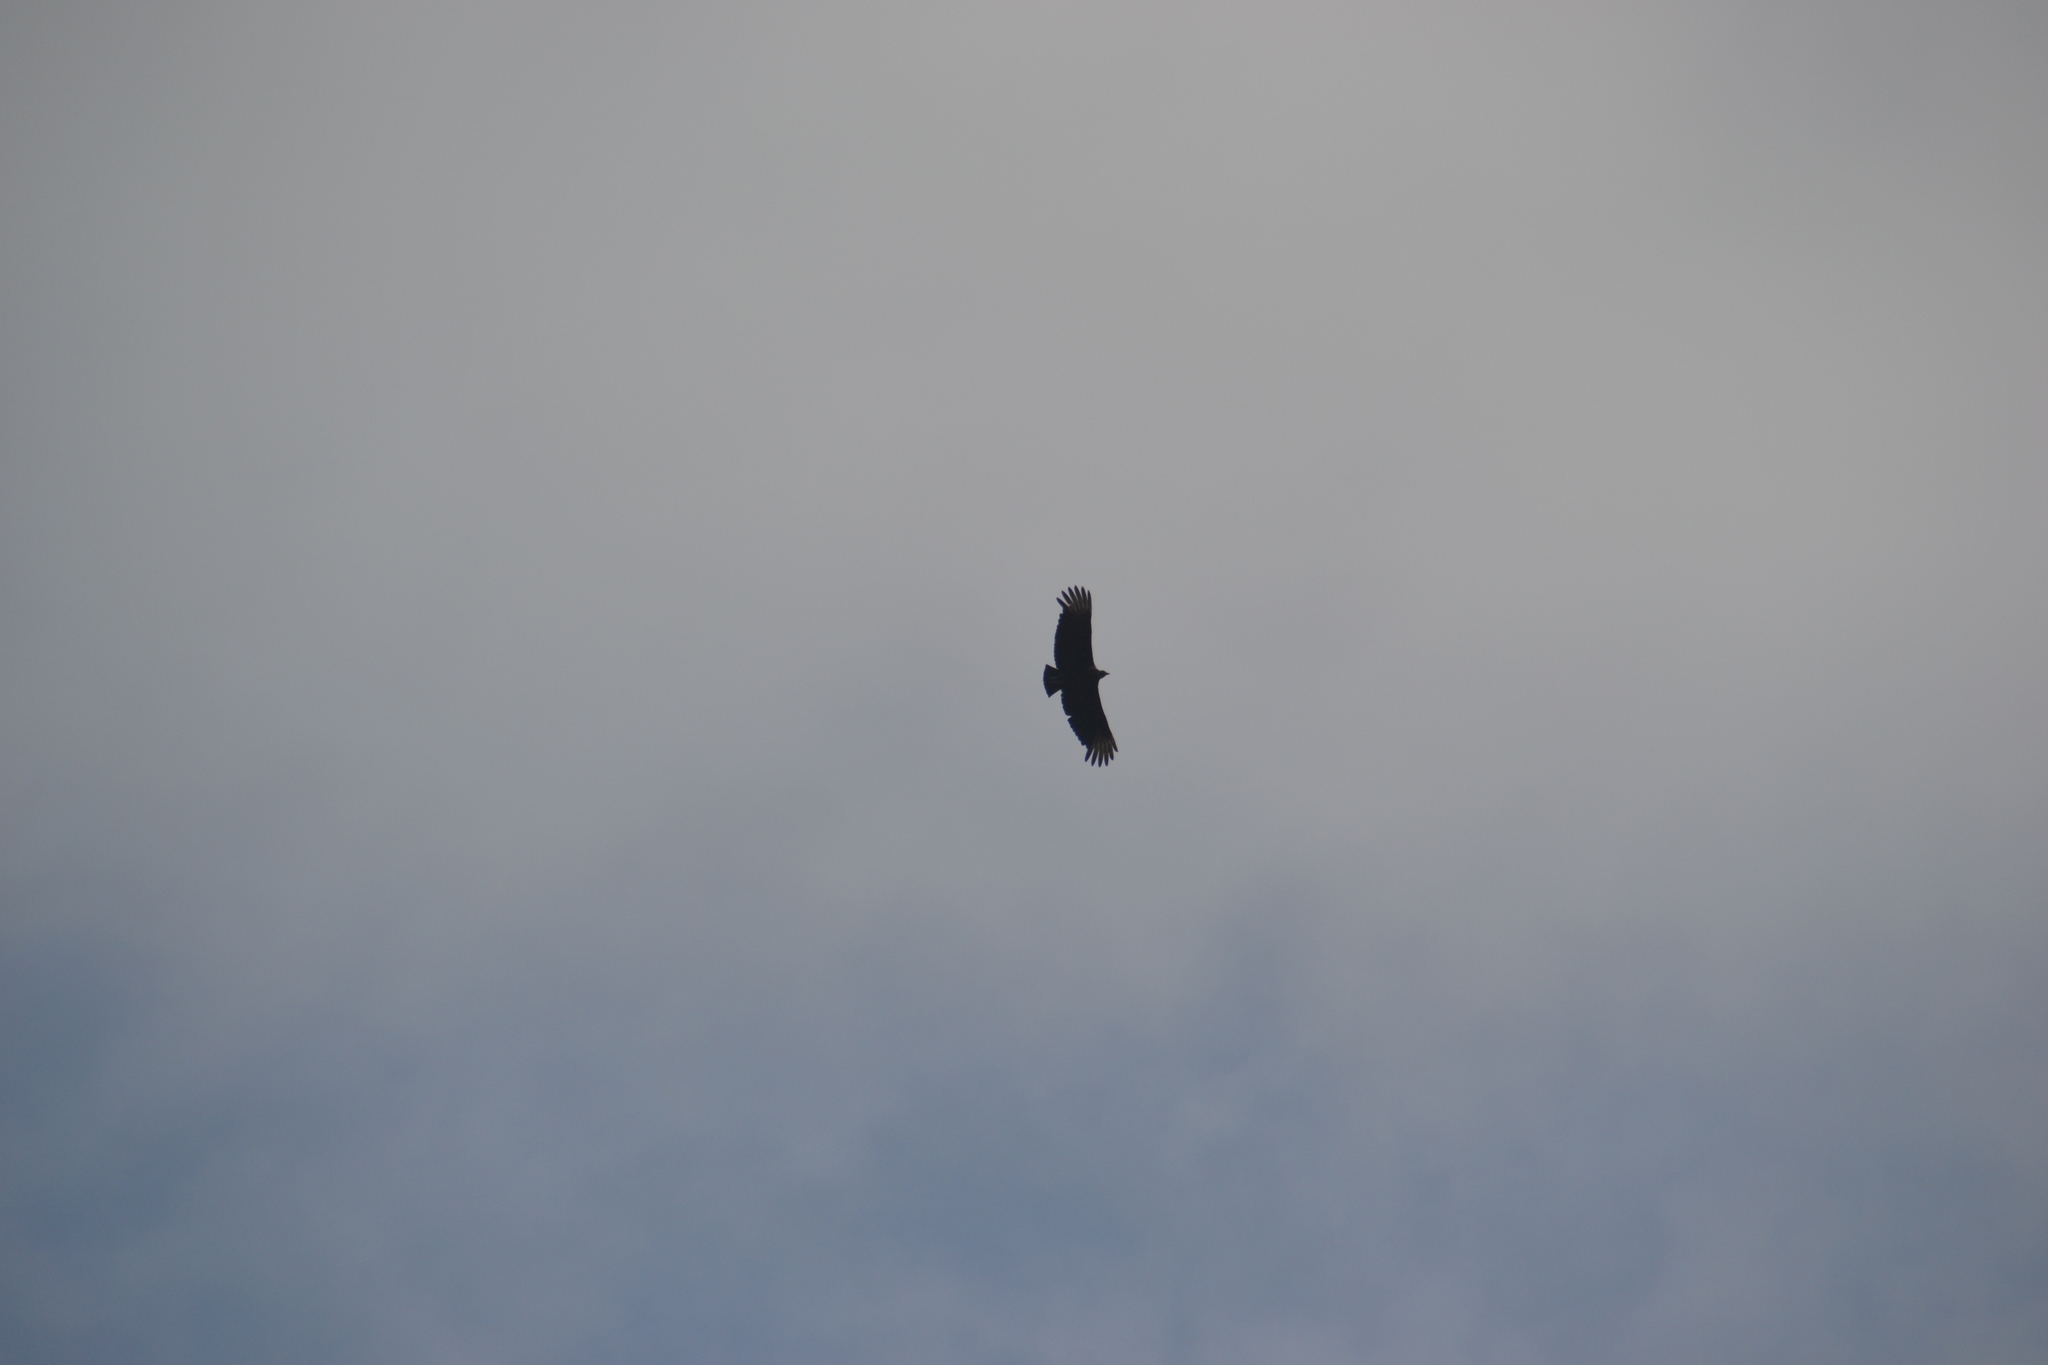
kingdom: Animalia
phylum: Chordata
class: Aves
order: Accipitriformes
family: Cathartidae
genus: Coragyps
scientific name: Coragyps atratus
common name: Black vulture
